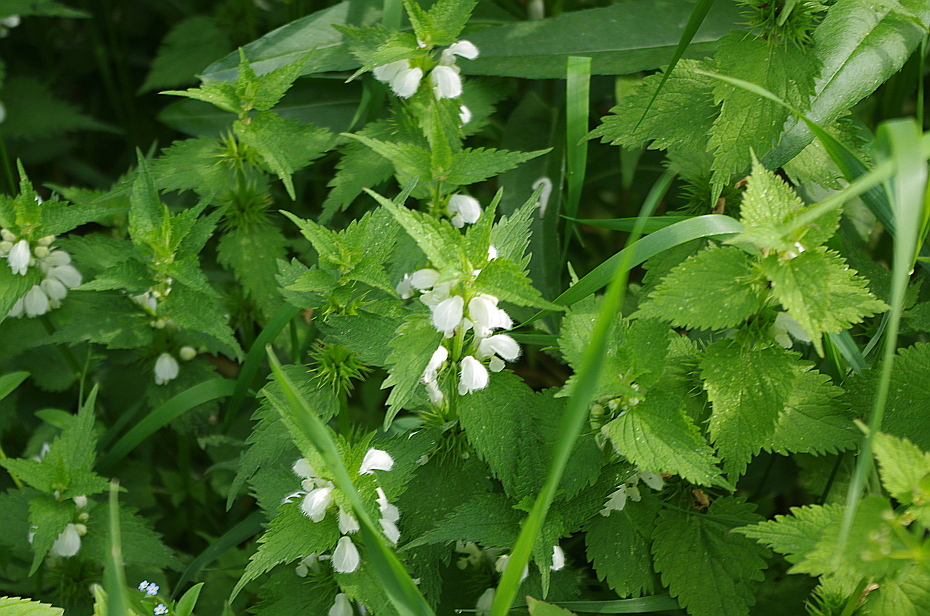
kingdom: Plantae
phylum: Tracheophyta
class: Magnoliopsida
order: Lamiales
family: Lamiaceae
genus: Lamium
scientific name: Lamium album
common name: White dead-nettle
